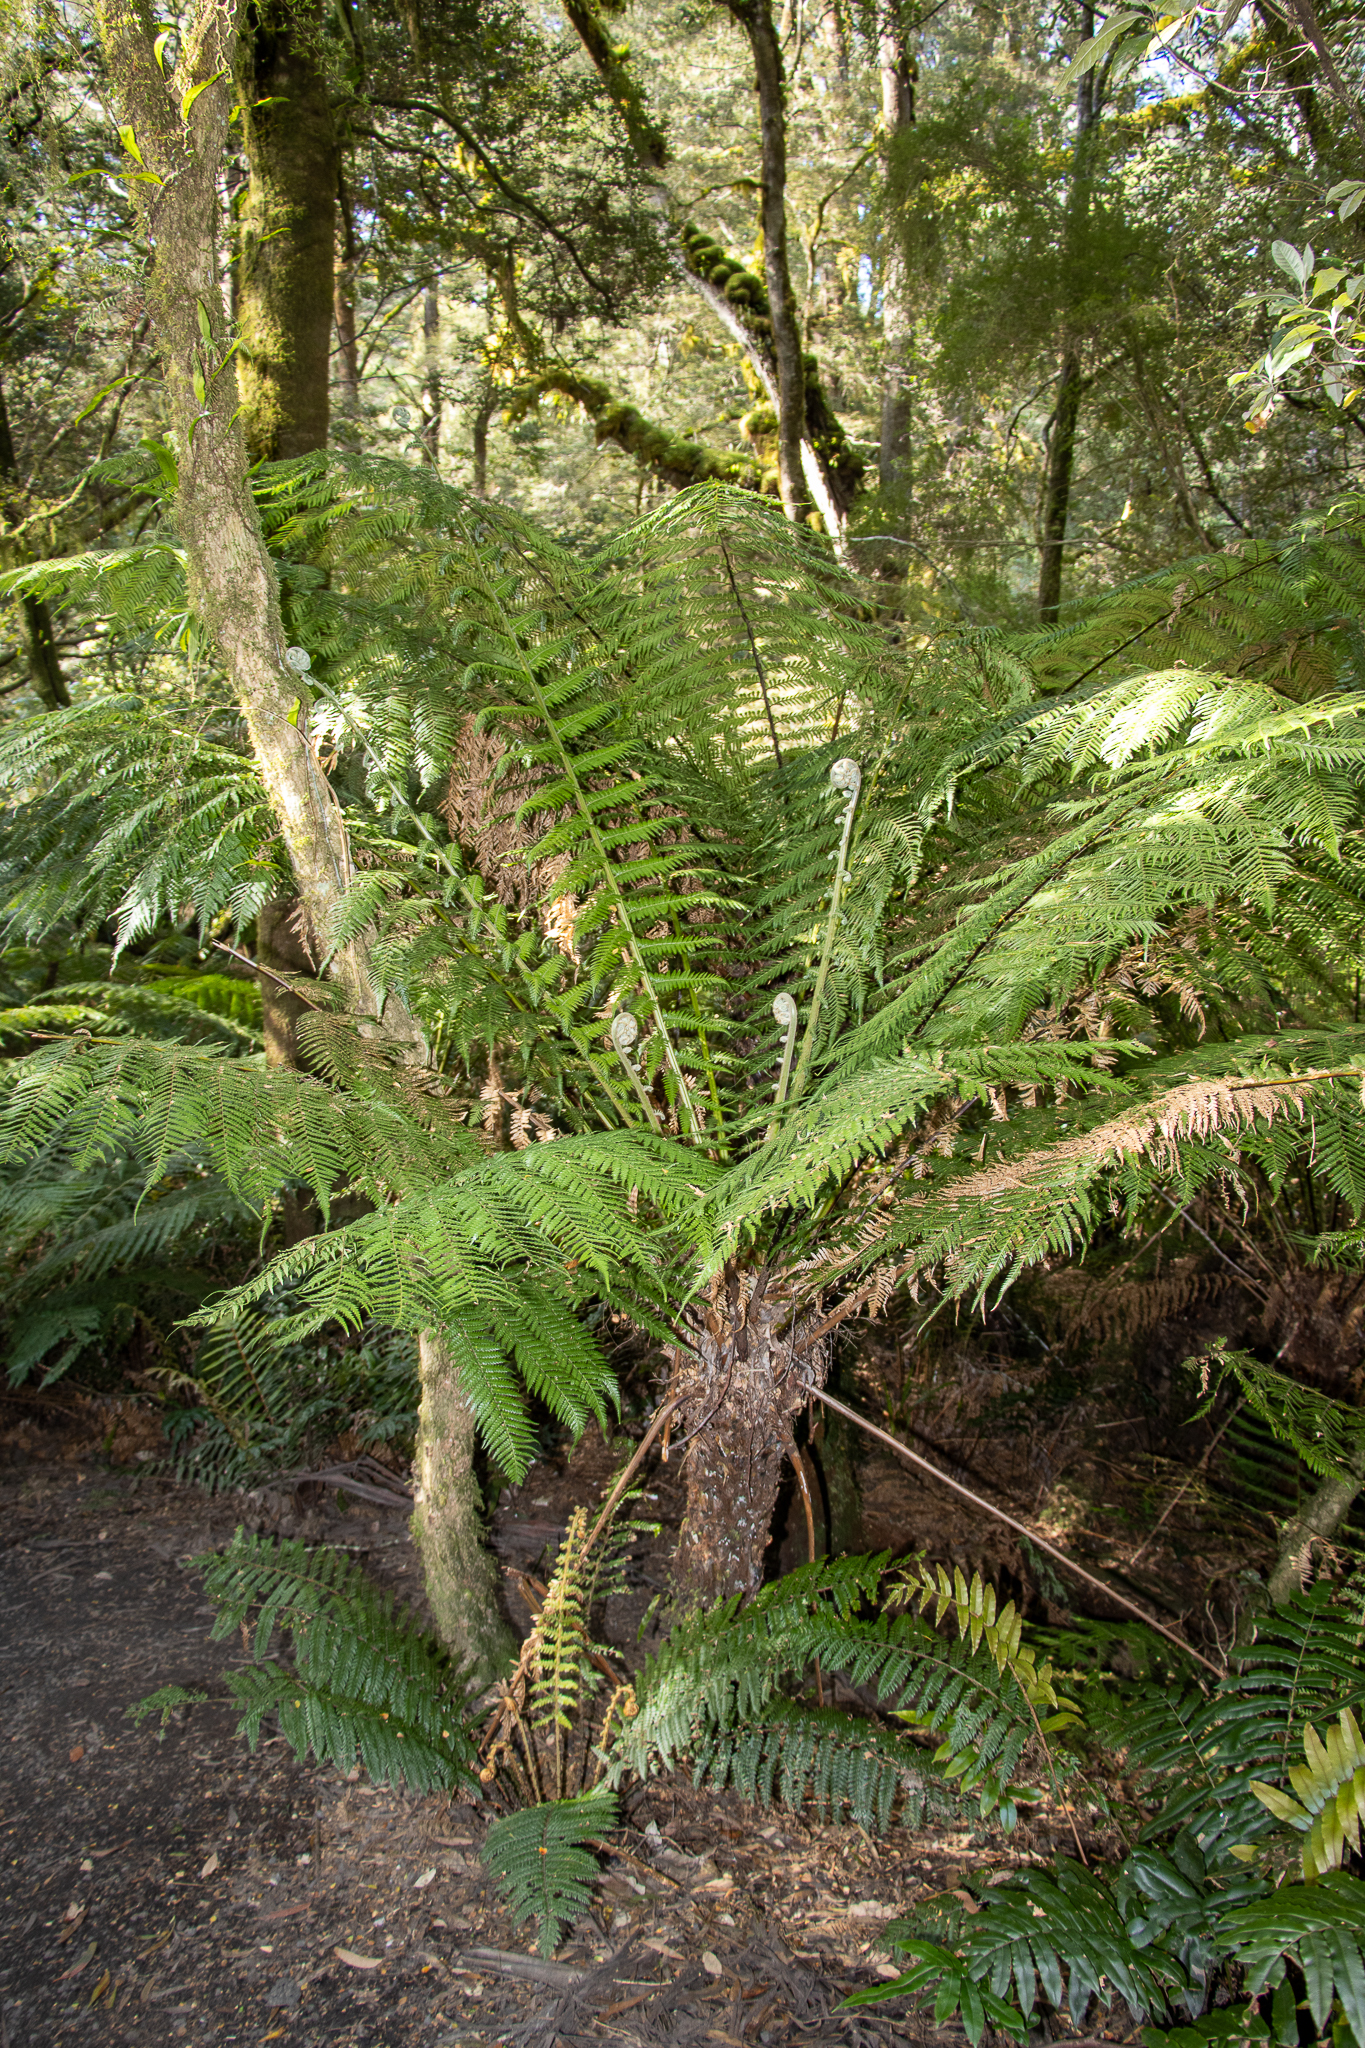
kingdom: Plantae
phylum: Tracheophyta
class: Polypodiopsida
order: Cyatheales
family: Dicksoniaceae
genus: Dicksonia
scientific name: Dicksonia antarctica
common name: Australian treefern
